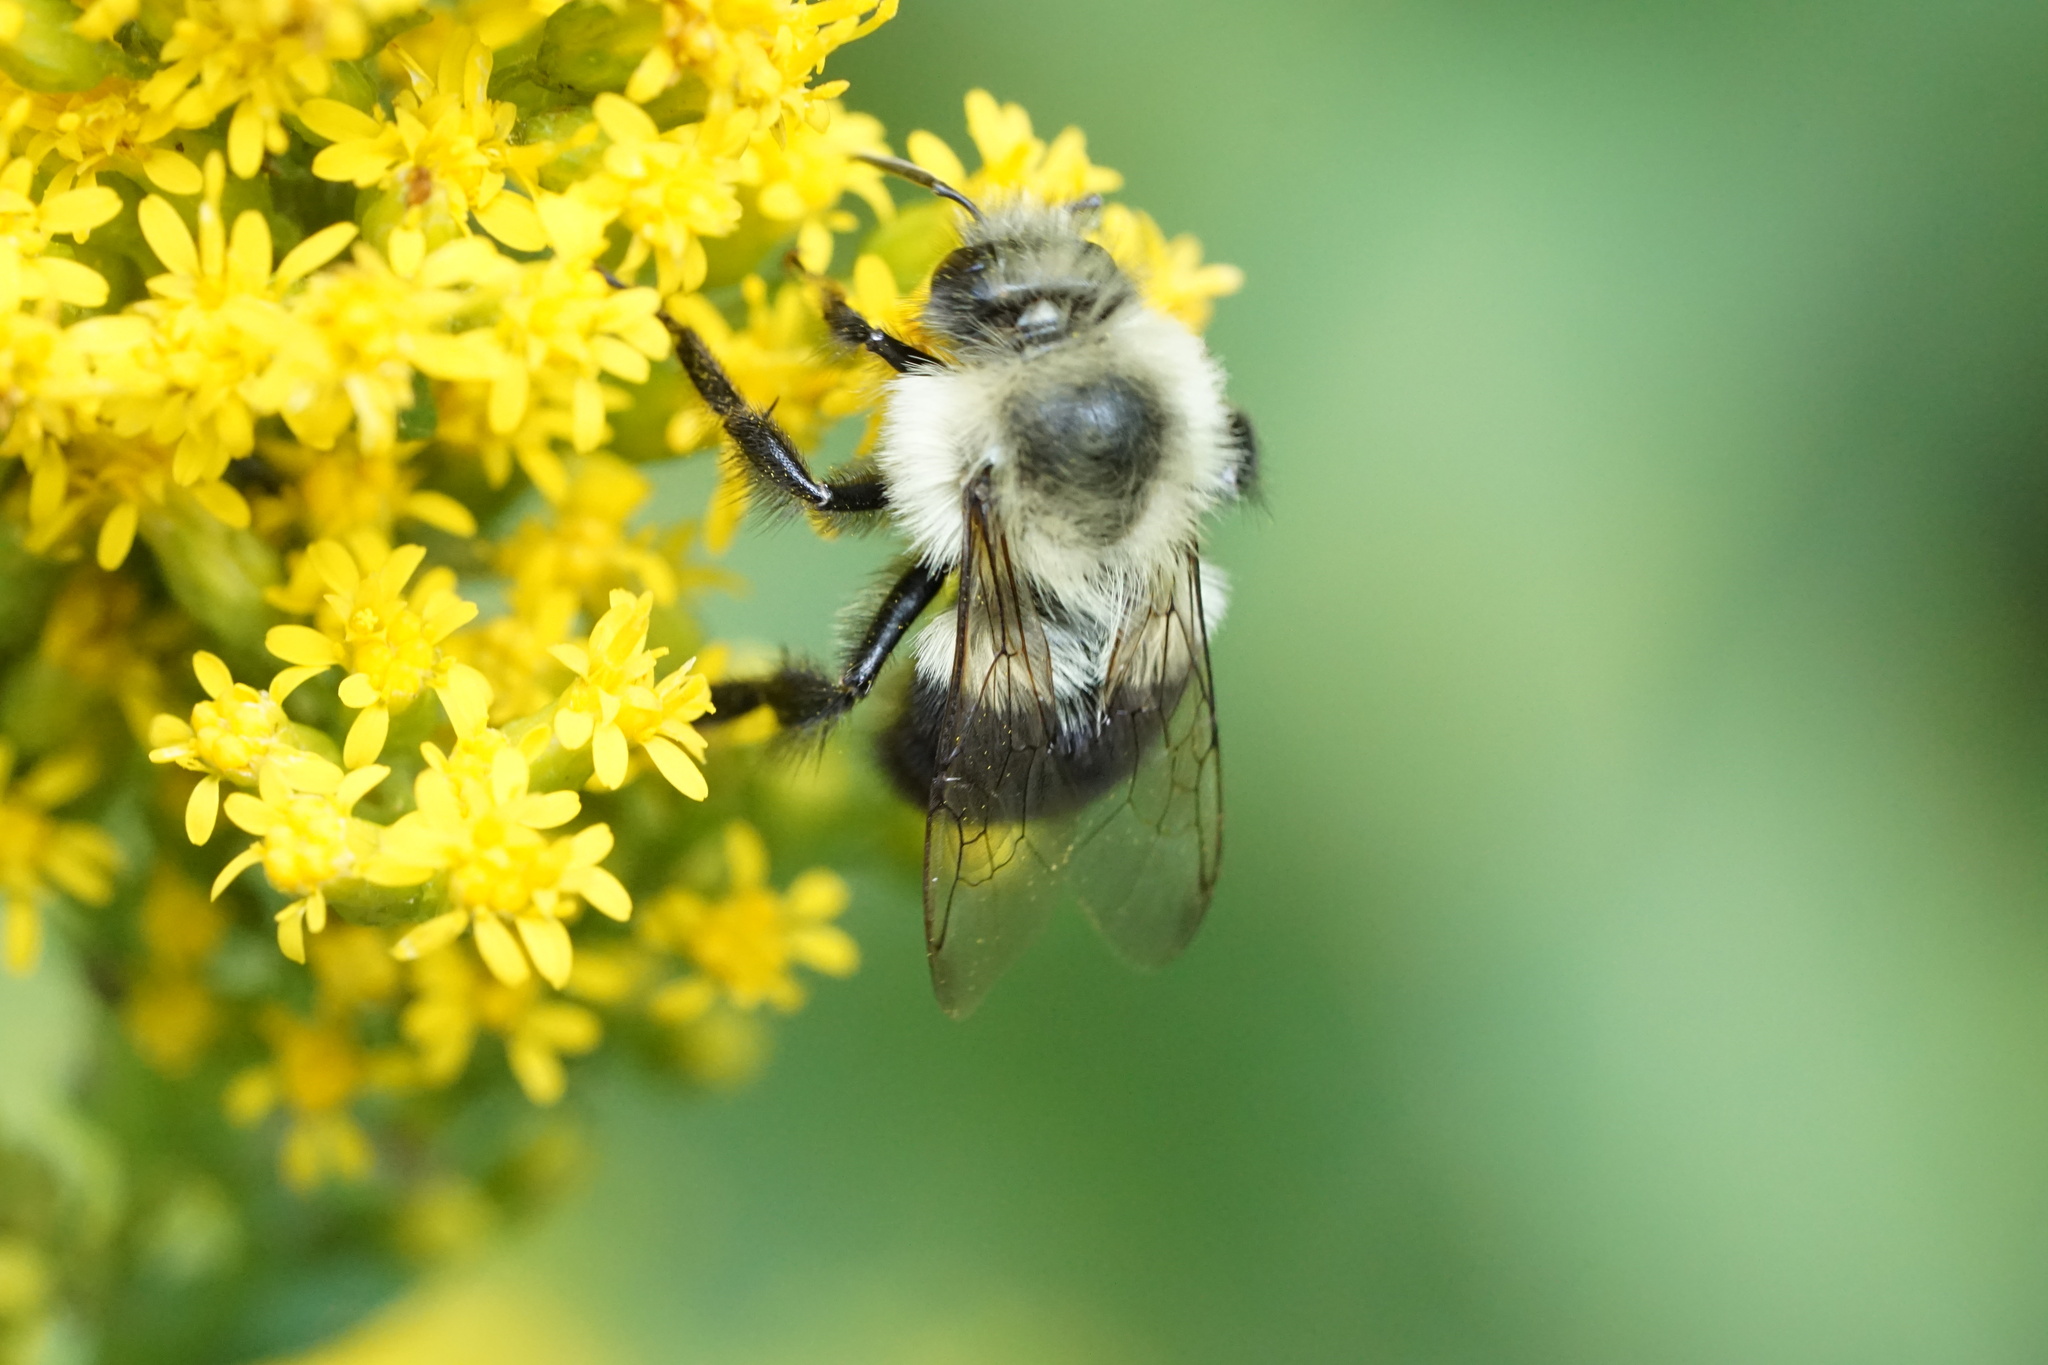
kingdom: Animalia
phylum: Arthropoda
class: Insecta
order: Hymenoptera
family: Apidae
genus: Bombus
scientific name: Bombus impatiens
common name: Common eastern bumble bee
